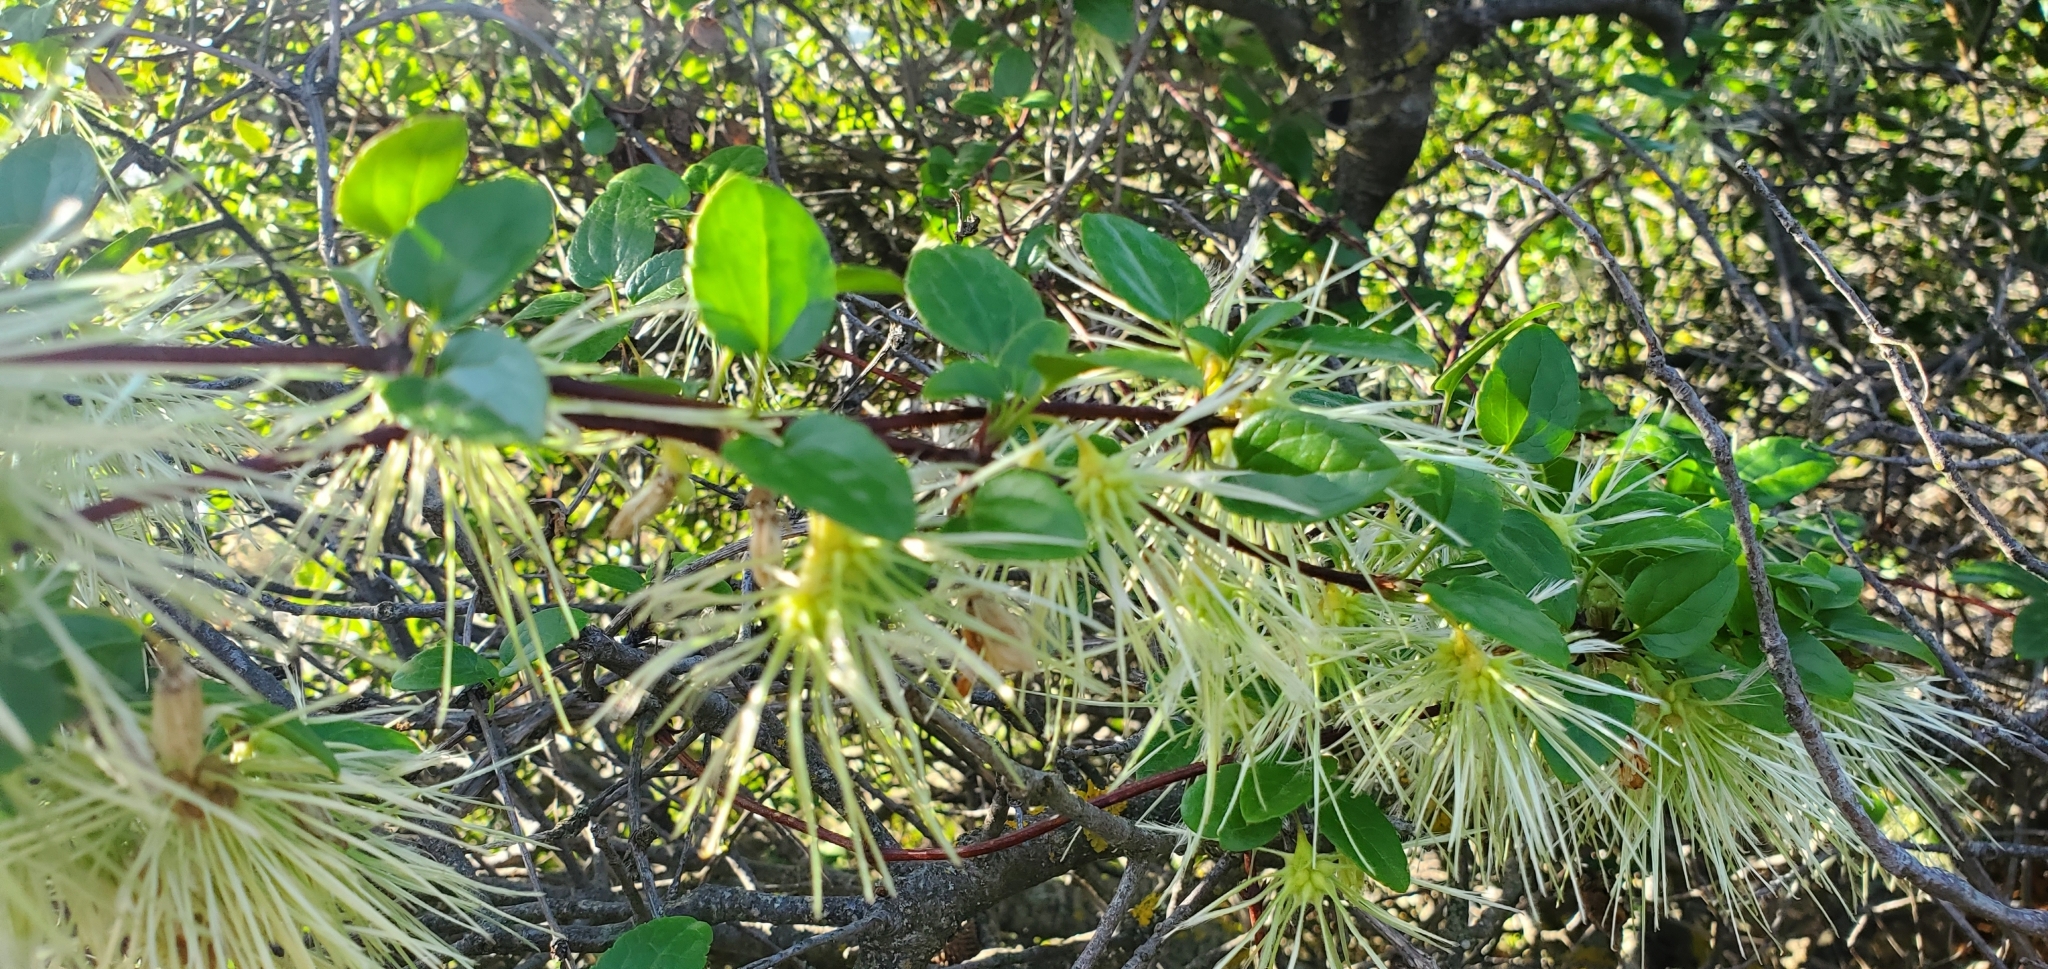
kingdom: Plantae
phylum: Tracheophyta
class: Magnoliopsida
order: Ranunculales
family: Ranunculaceae
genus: Clematis
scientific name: Clematis cirrhosa
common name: Early virgin's-bower
